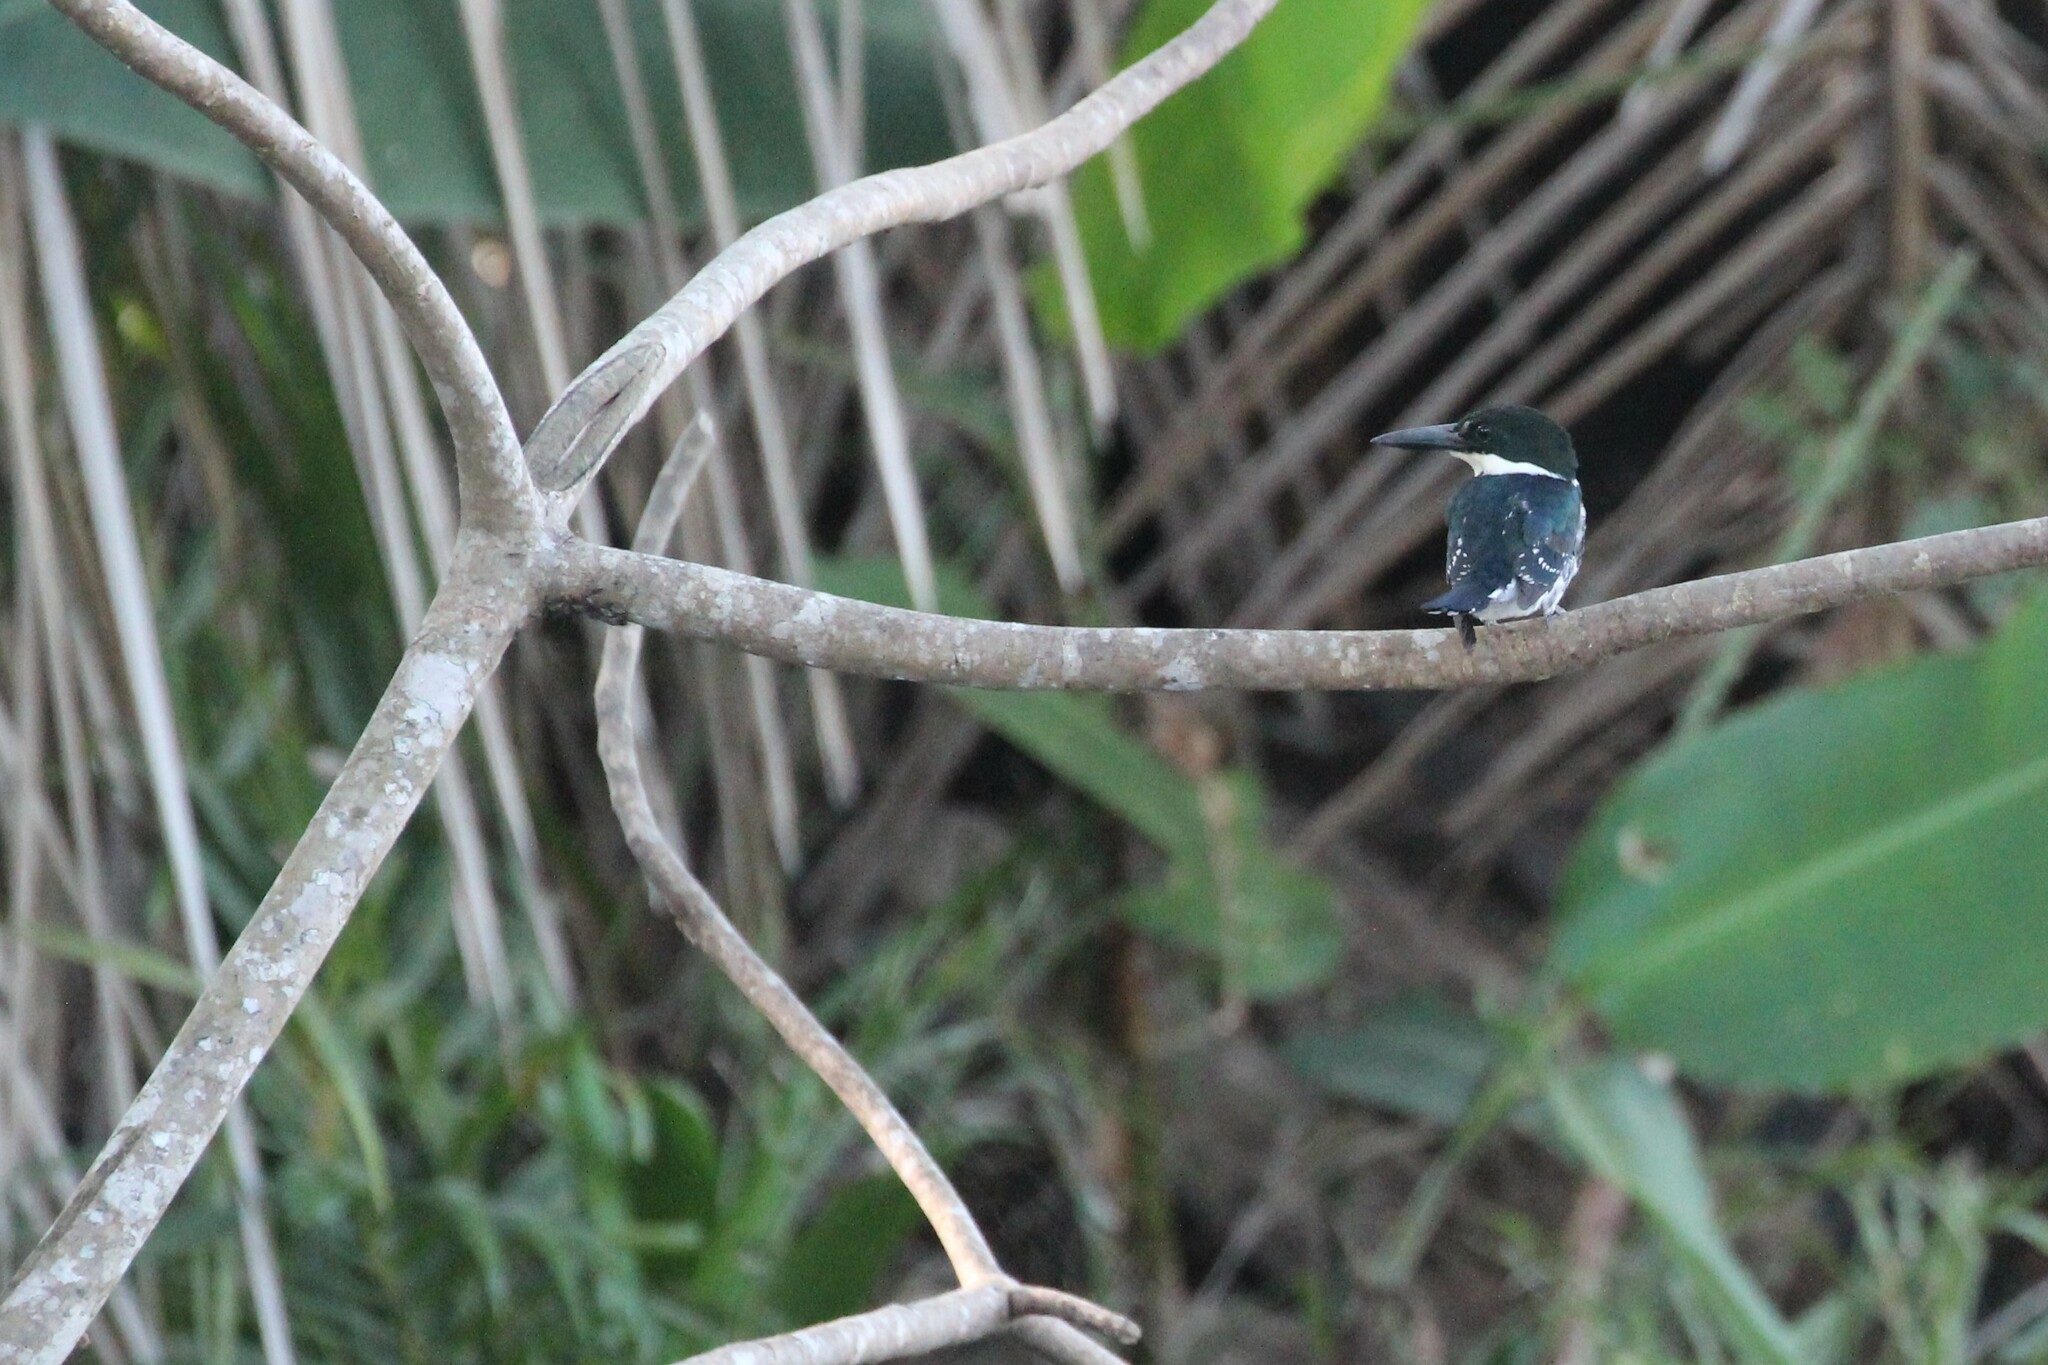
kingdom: Animalia
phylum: Chordata
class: Aves
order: Coraciiformes
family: Alcedinidae
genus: Chloroceryle
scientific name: Chloroceryle americana
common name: Green kingfisher
